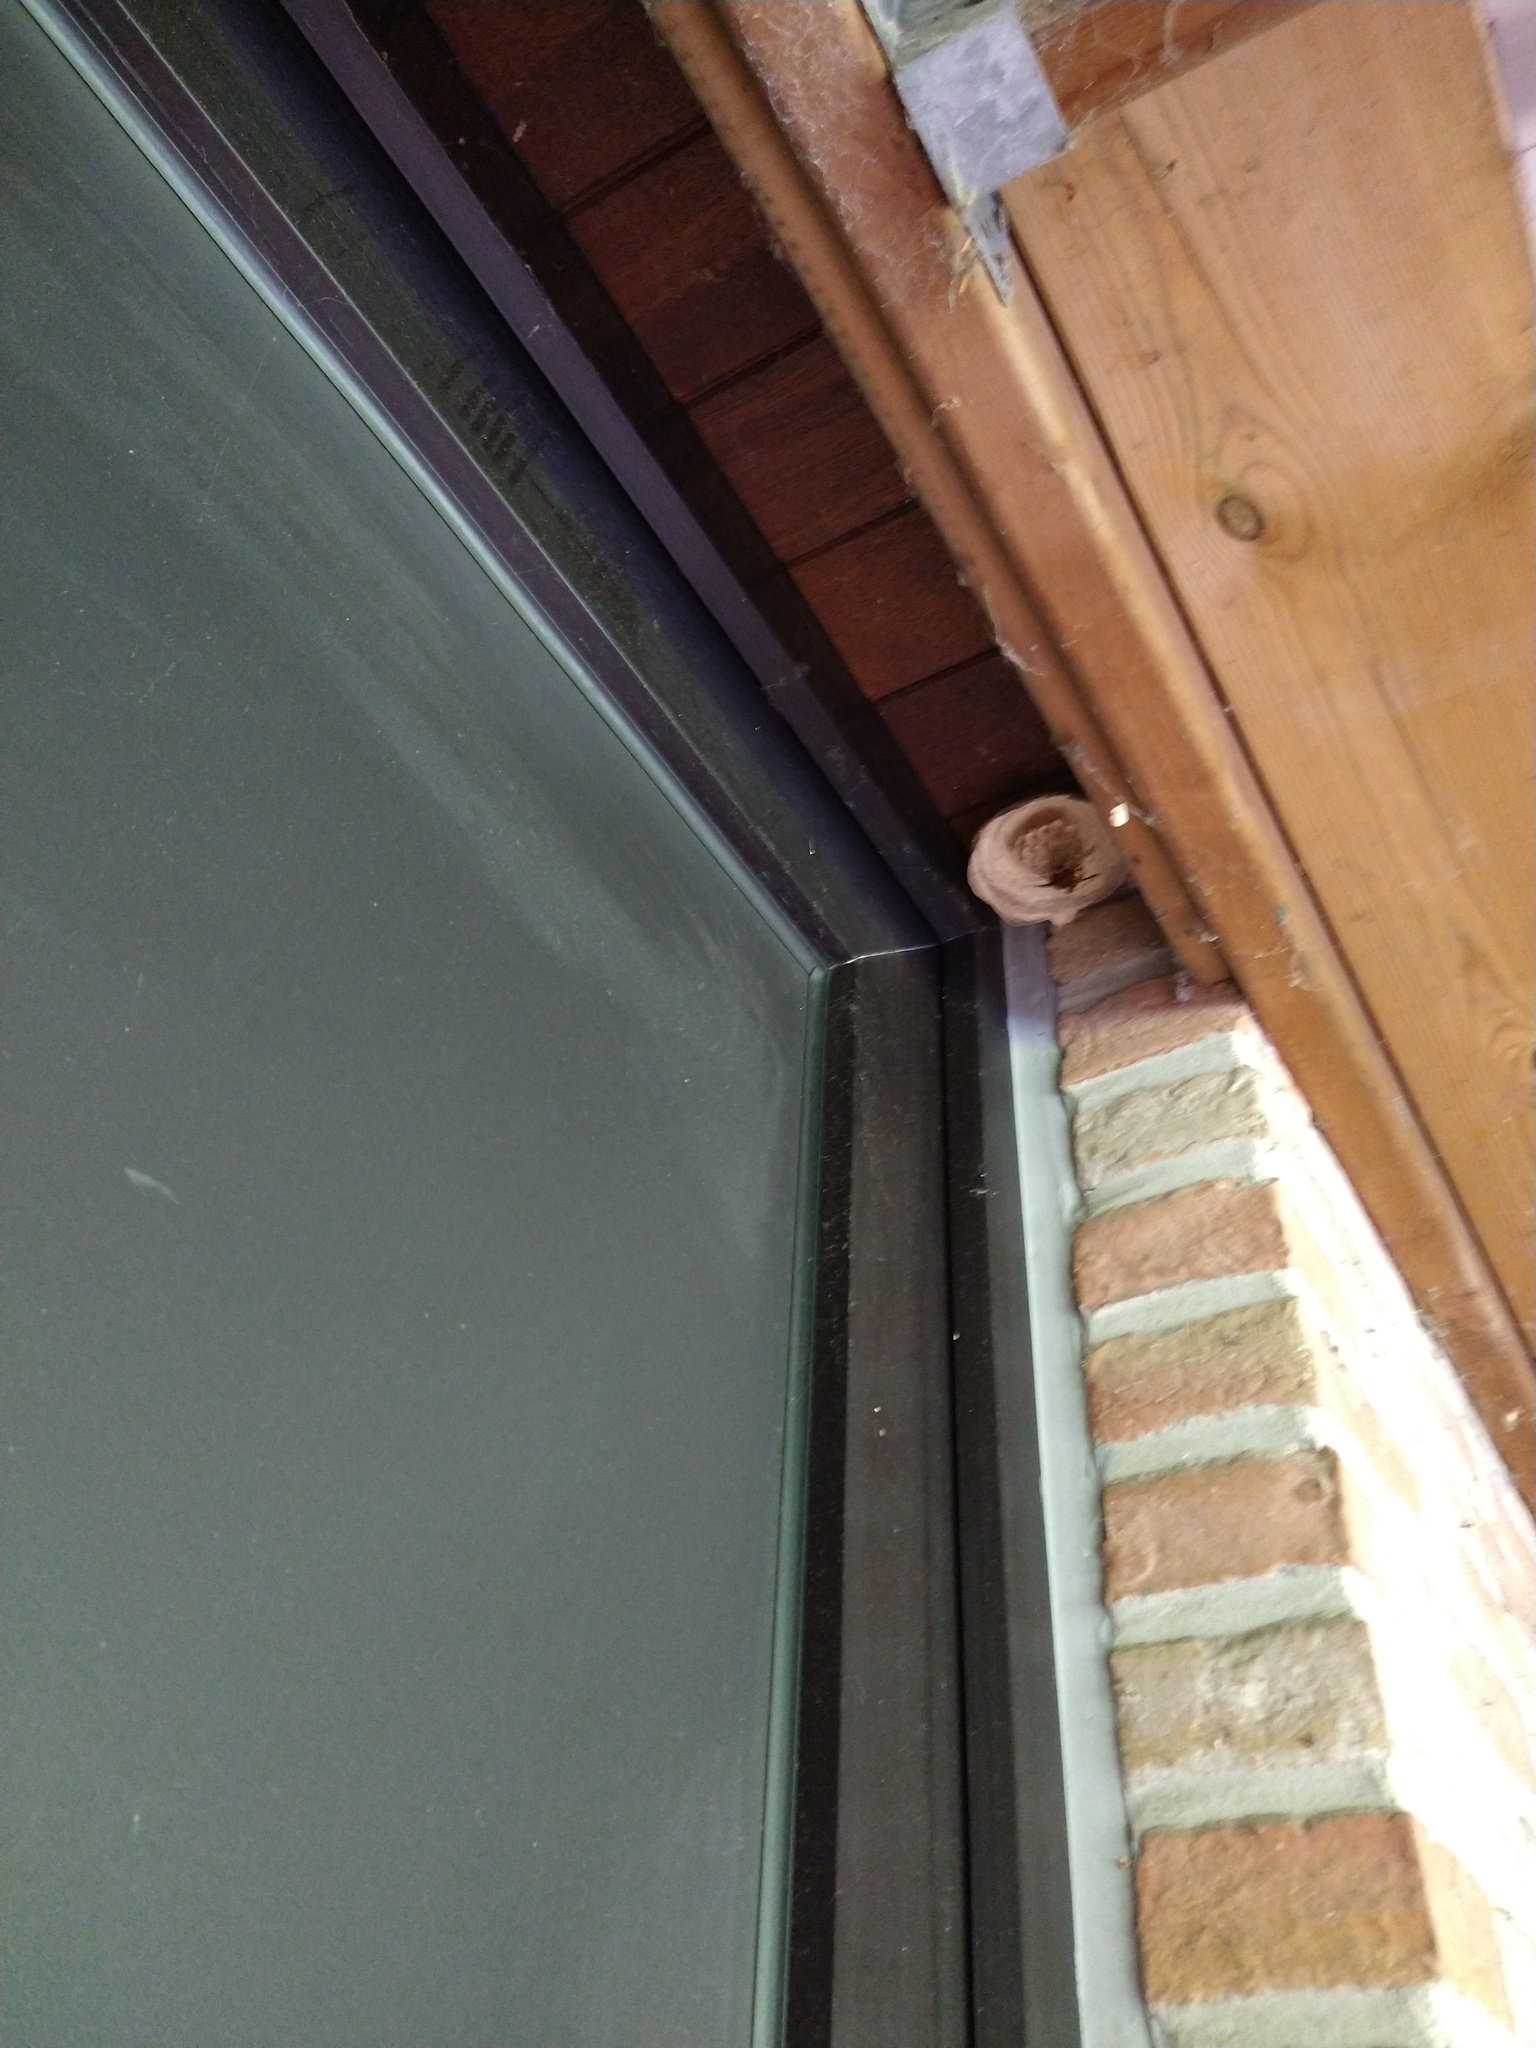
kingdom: Animalia
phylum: Arthropoda
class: Insecta
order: Hymenoptera
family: Vespidae
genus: Vespa
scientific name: Vespa crabro
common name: Hornet
